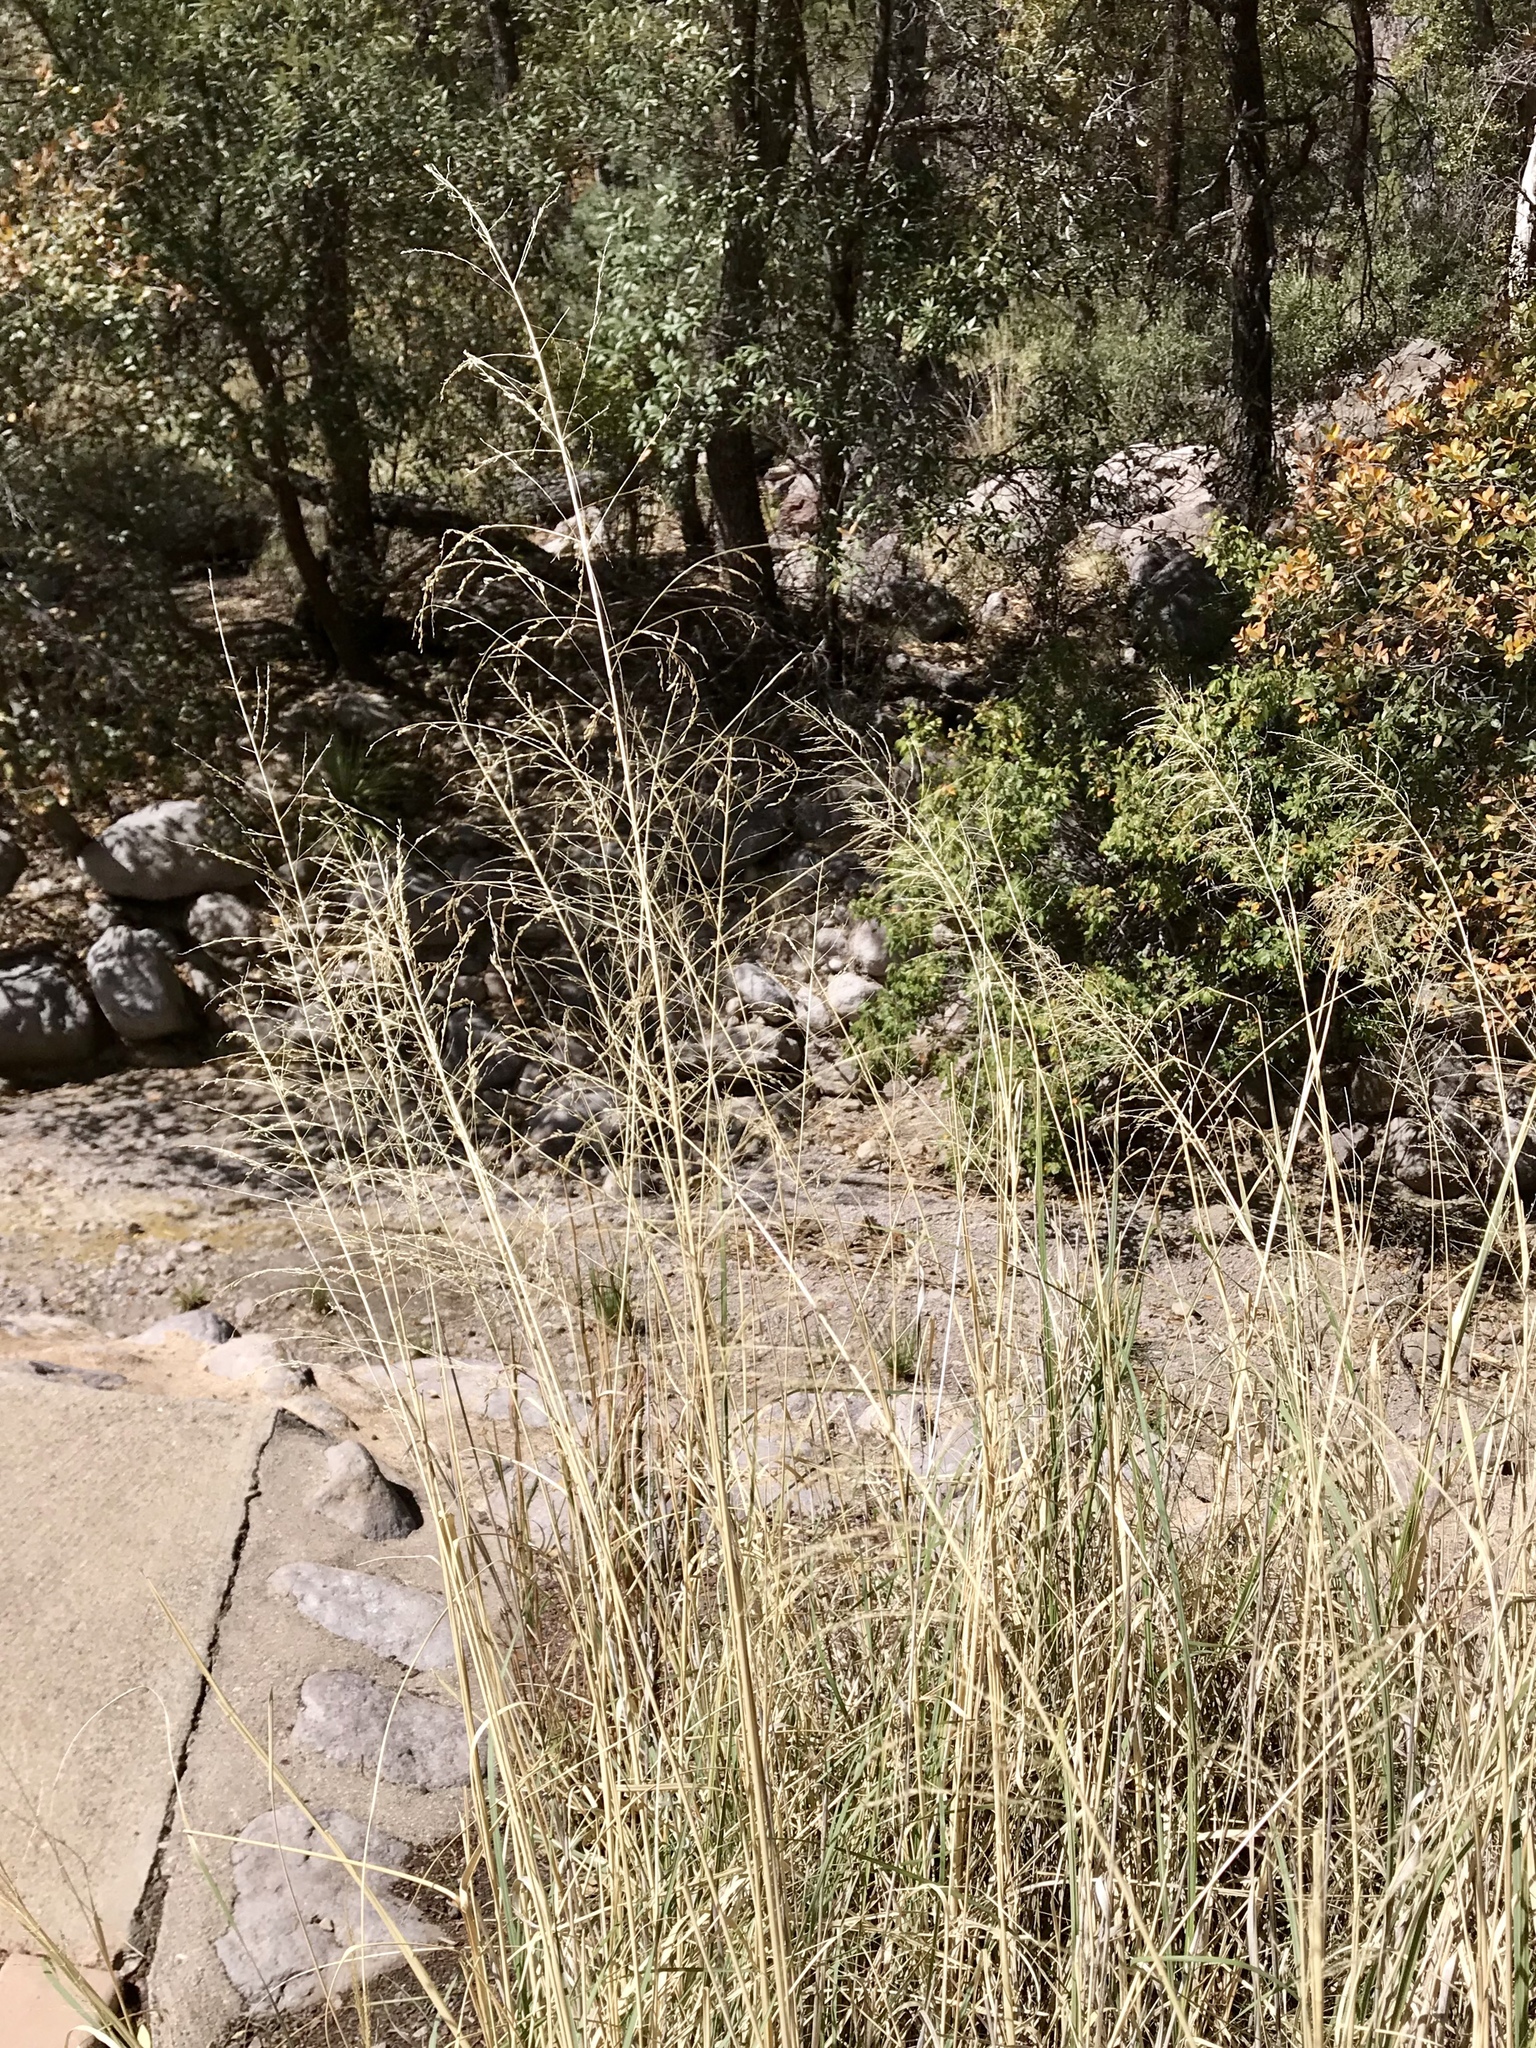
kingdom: Plantae
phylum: Tracheophyta
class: Liliopsida
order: Poales
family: Poaceae
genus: Eragrostis
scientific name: Eragrostis curvula
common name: African love-grass
